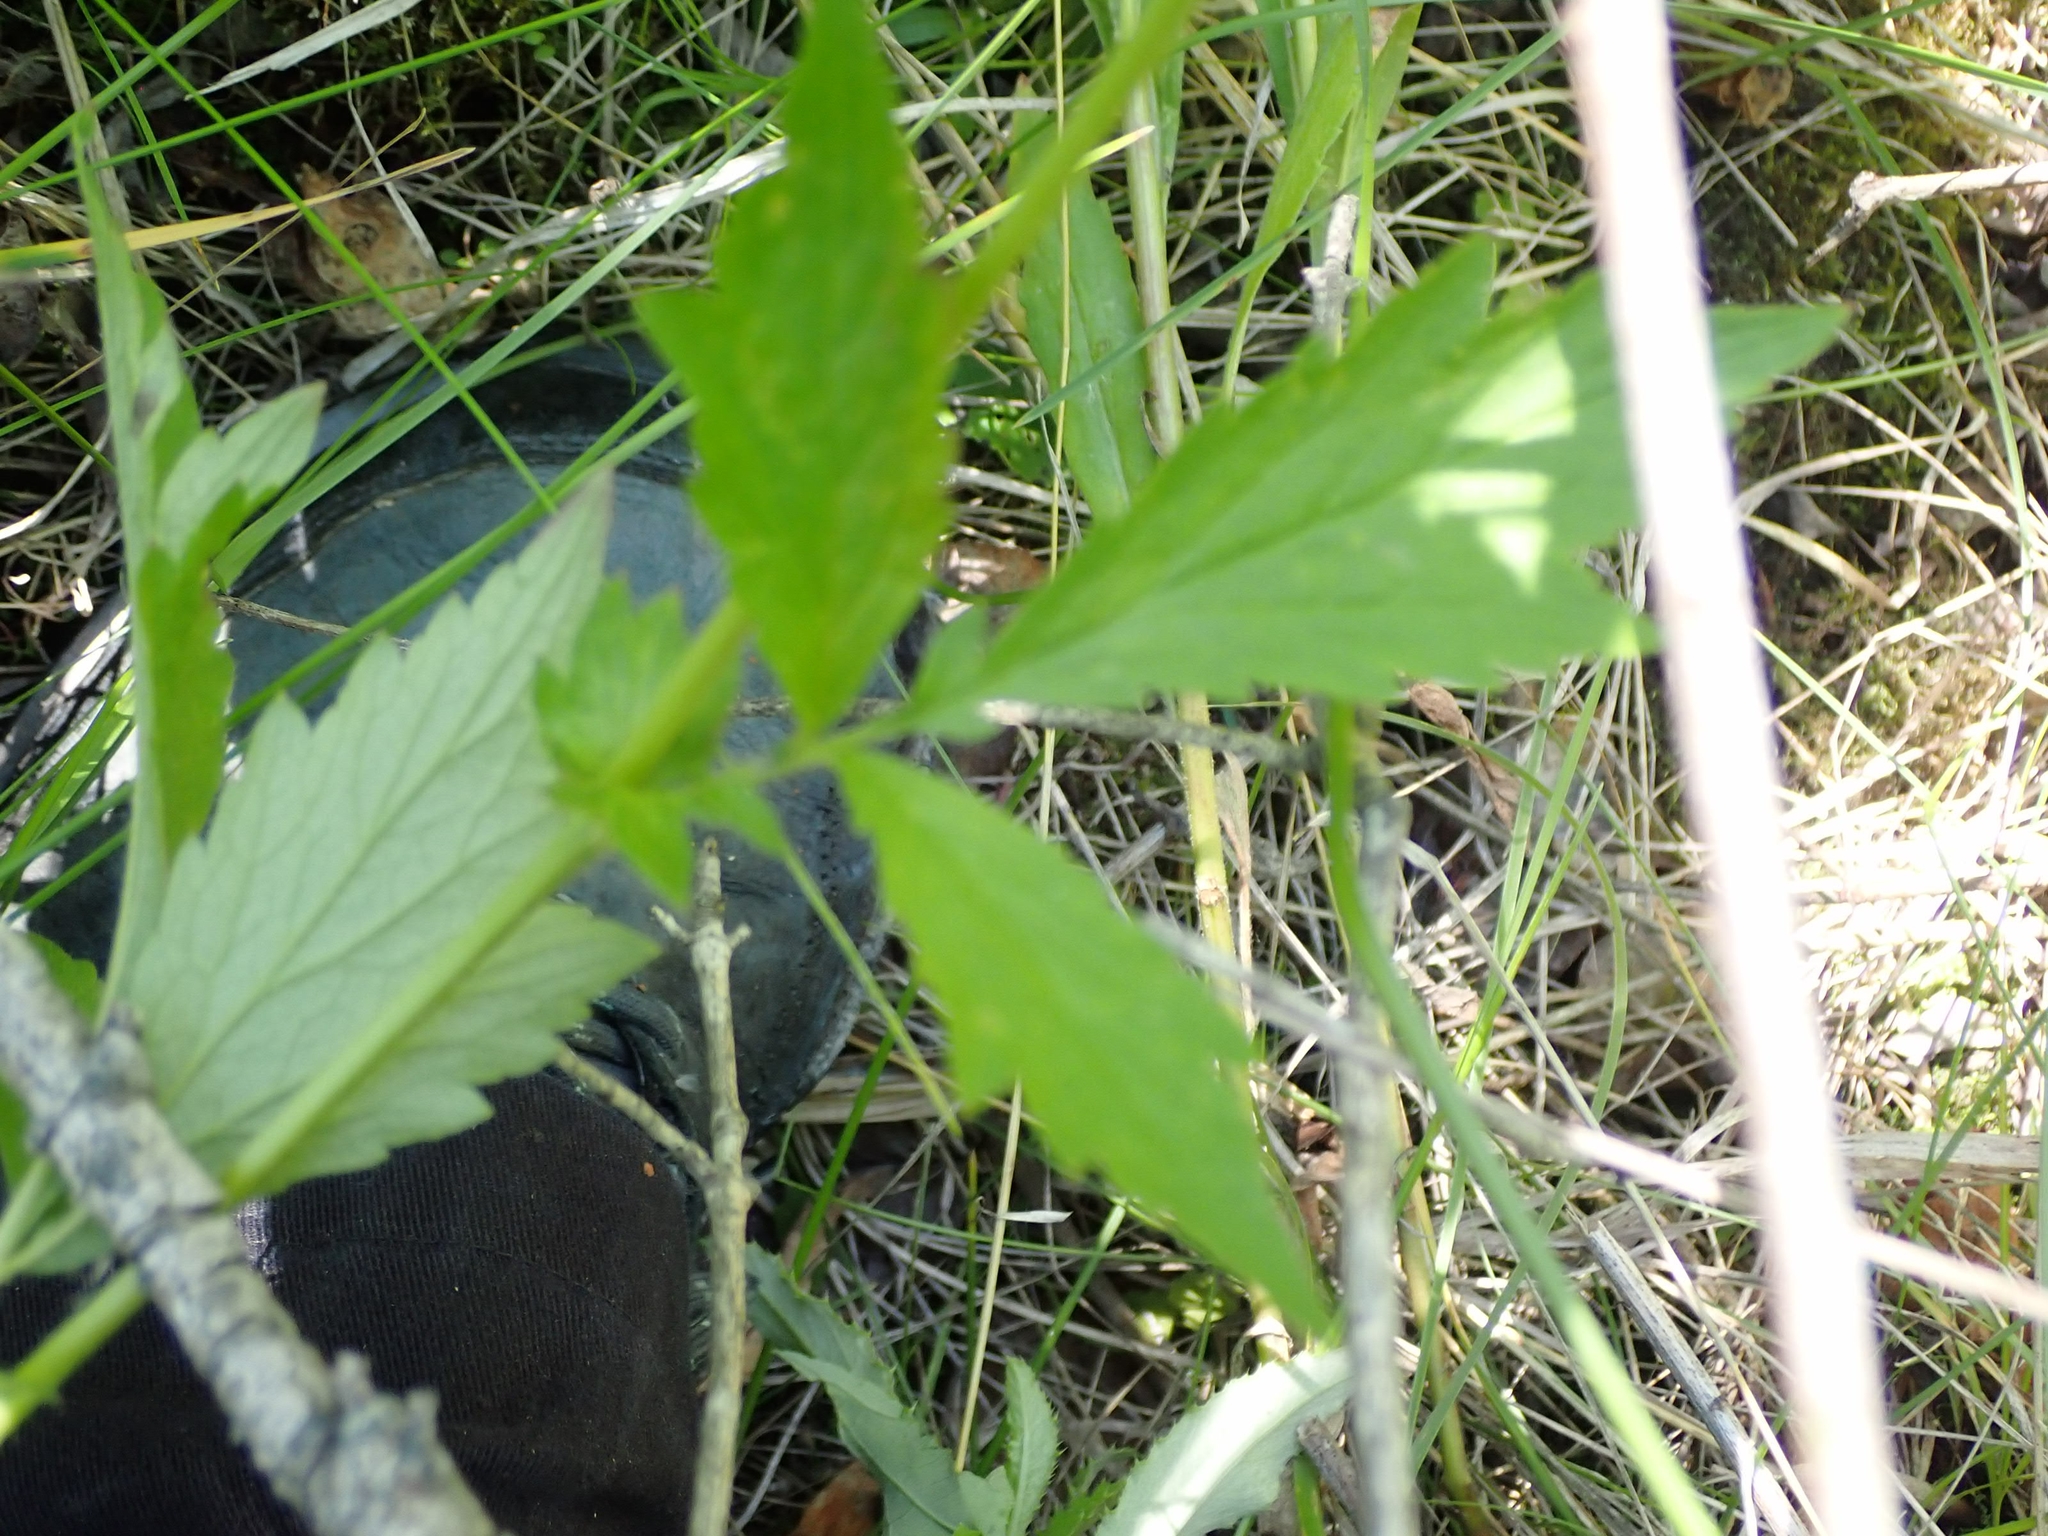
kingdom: Plantae
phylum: Tracheophyta
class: Magnoliopsida
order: Rosales
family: Rosaceae
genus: Geum
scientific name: Geum aleppicum
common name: Yellow avens
